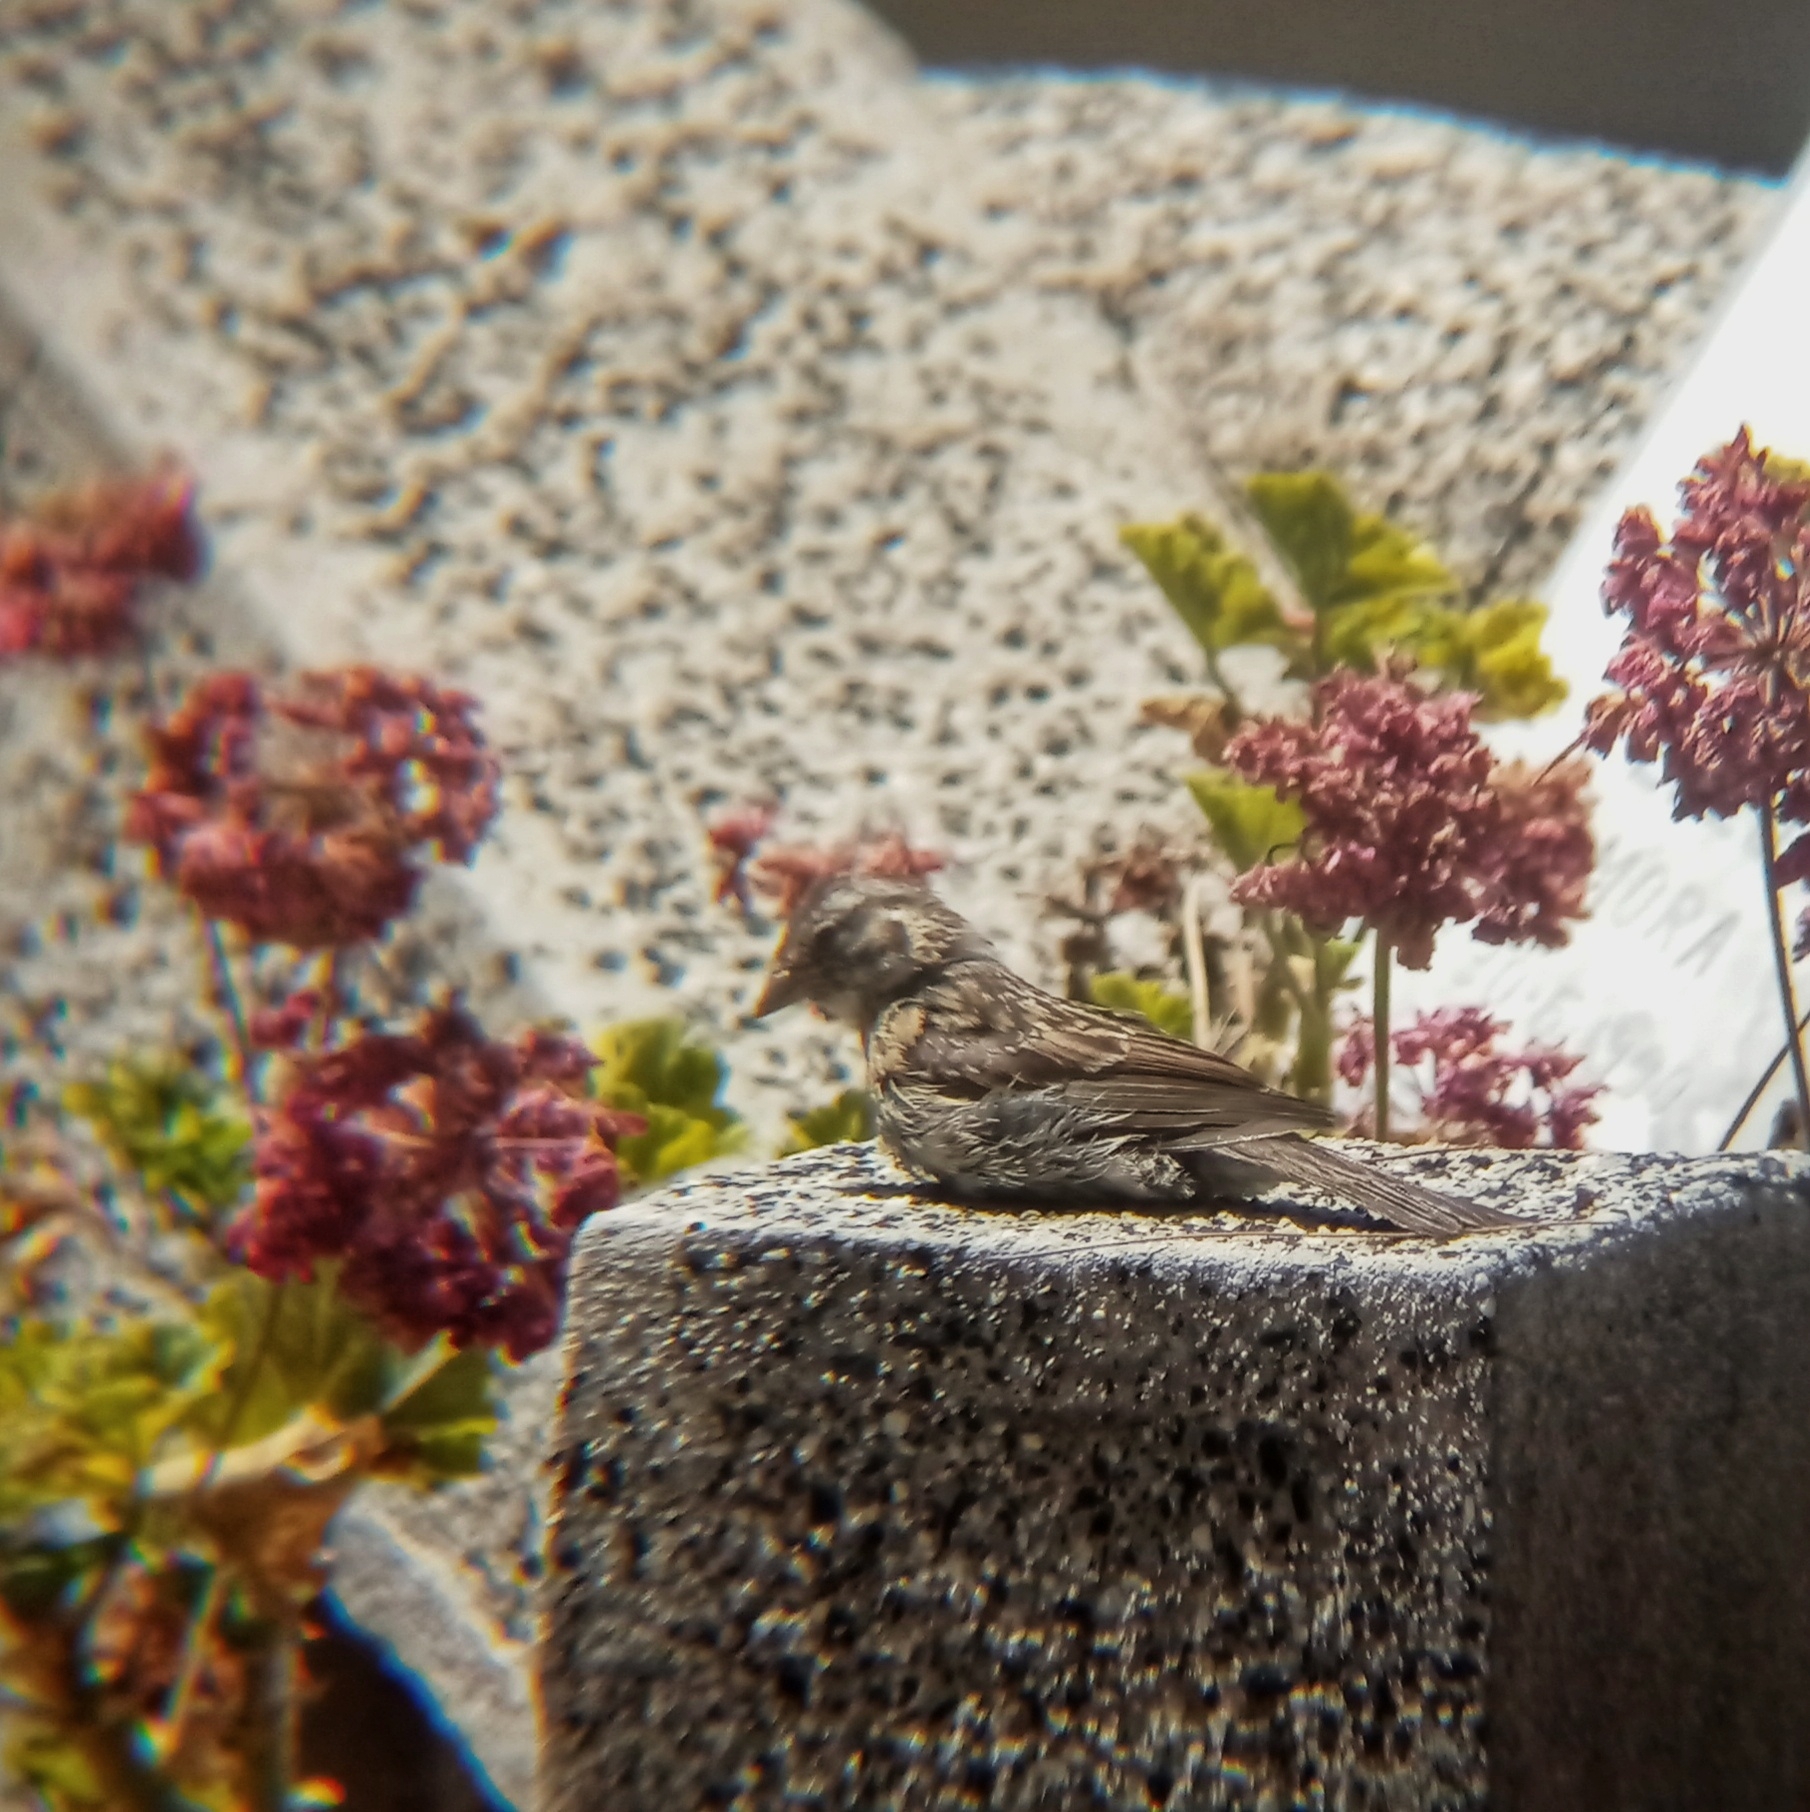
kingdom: Animalia
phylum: Chordata
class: Aves
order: Passeriformes
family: Passerellidae
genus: Zonotrichia
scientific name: Zonotrichia capensis
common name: Rufous-collared sparrow
